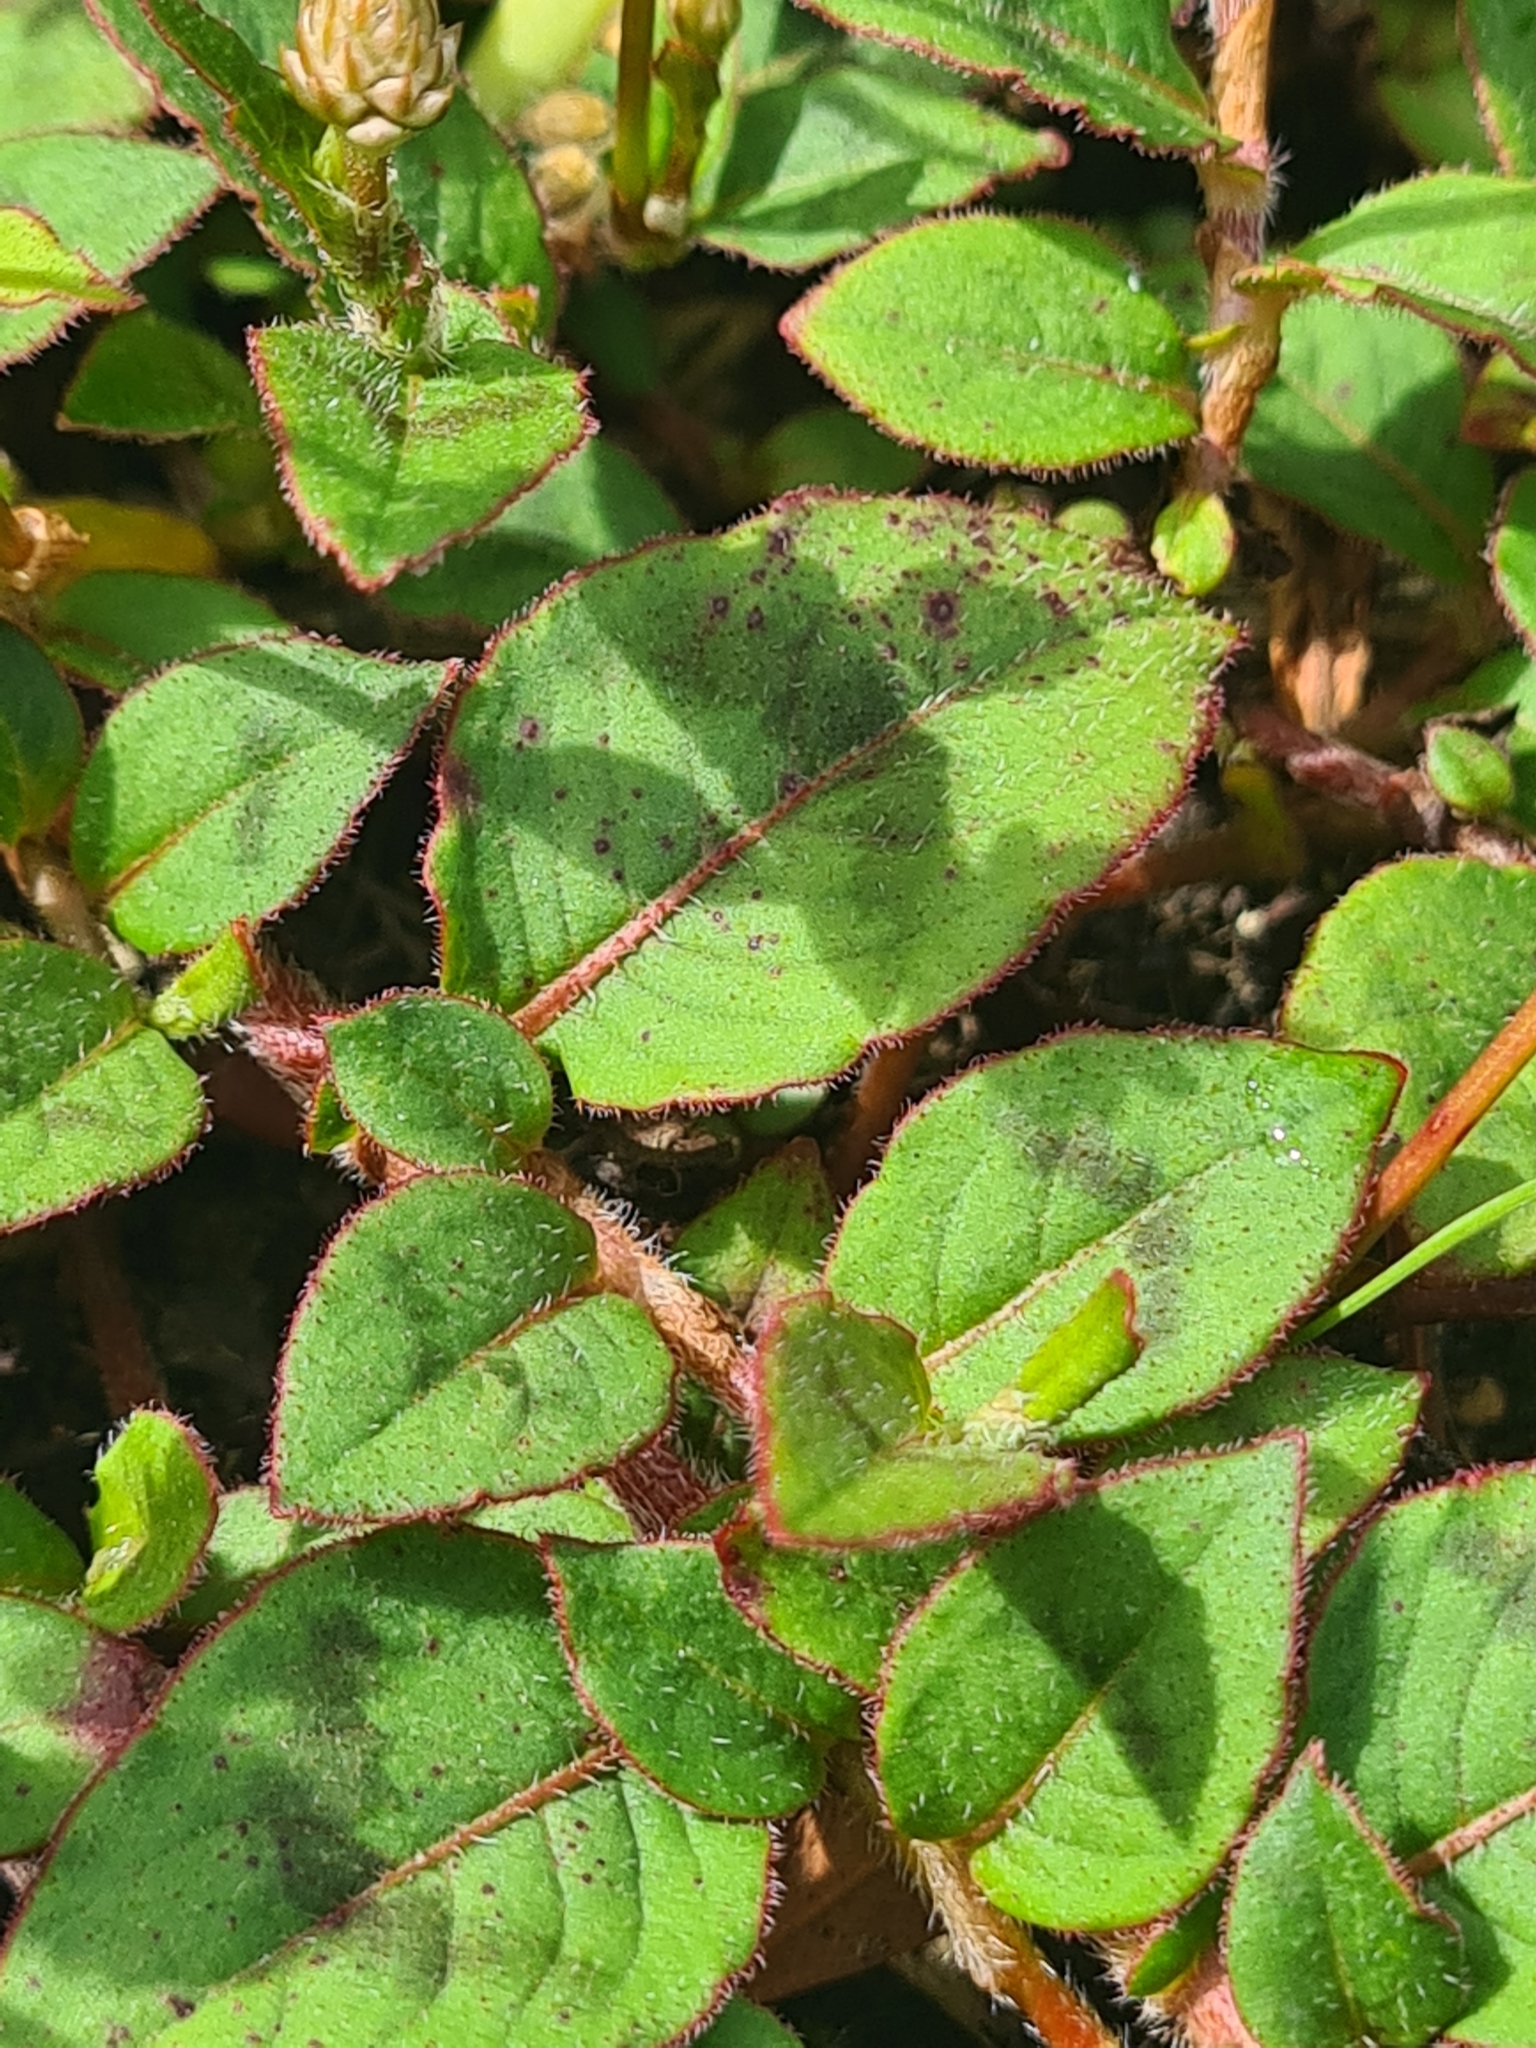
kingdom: Plantae
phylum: Tracheophyta
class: Magnoliopsida
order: Caryophyllales
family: Polygonaceae
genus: Persicaria
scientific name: Persicaria capitata
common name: Pinkhead smartweed
